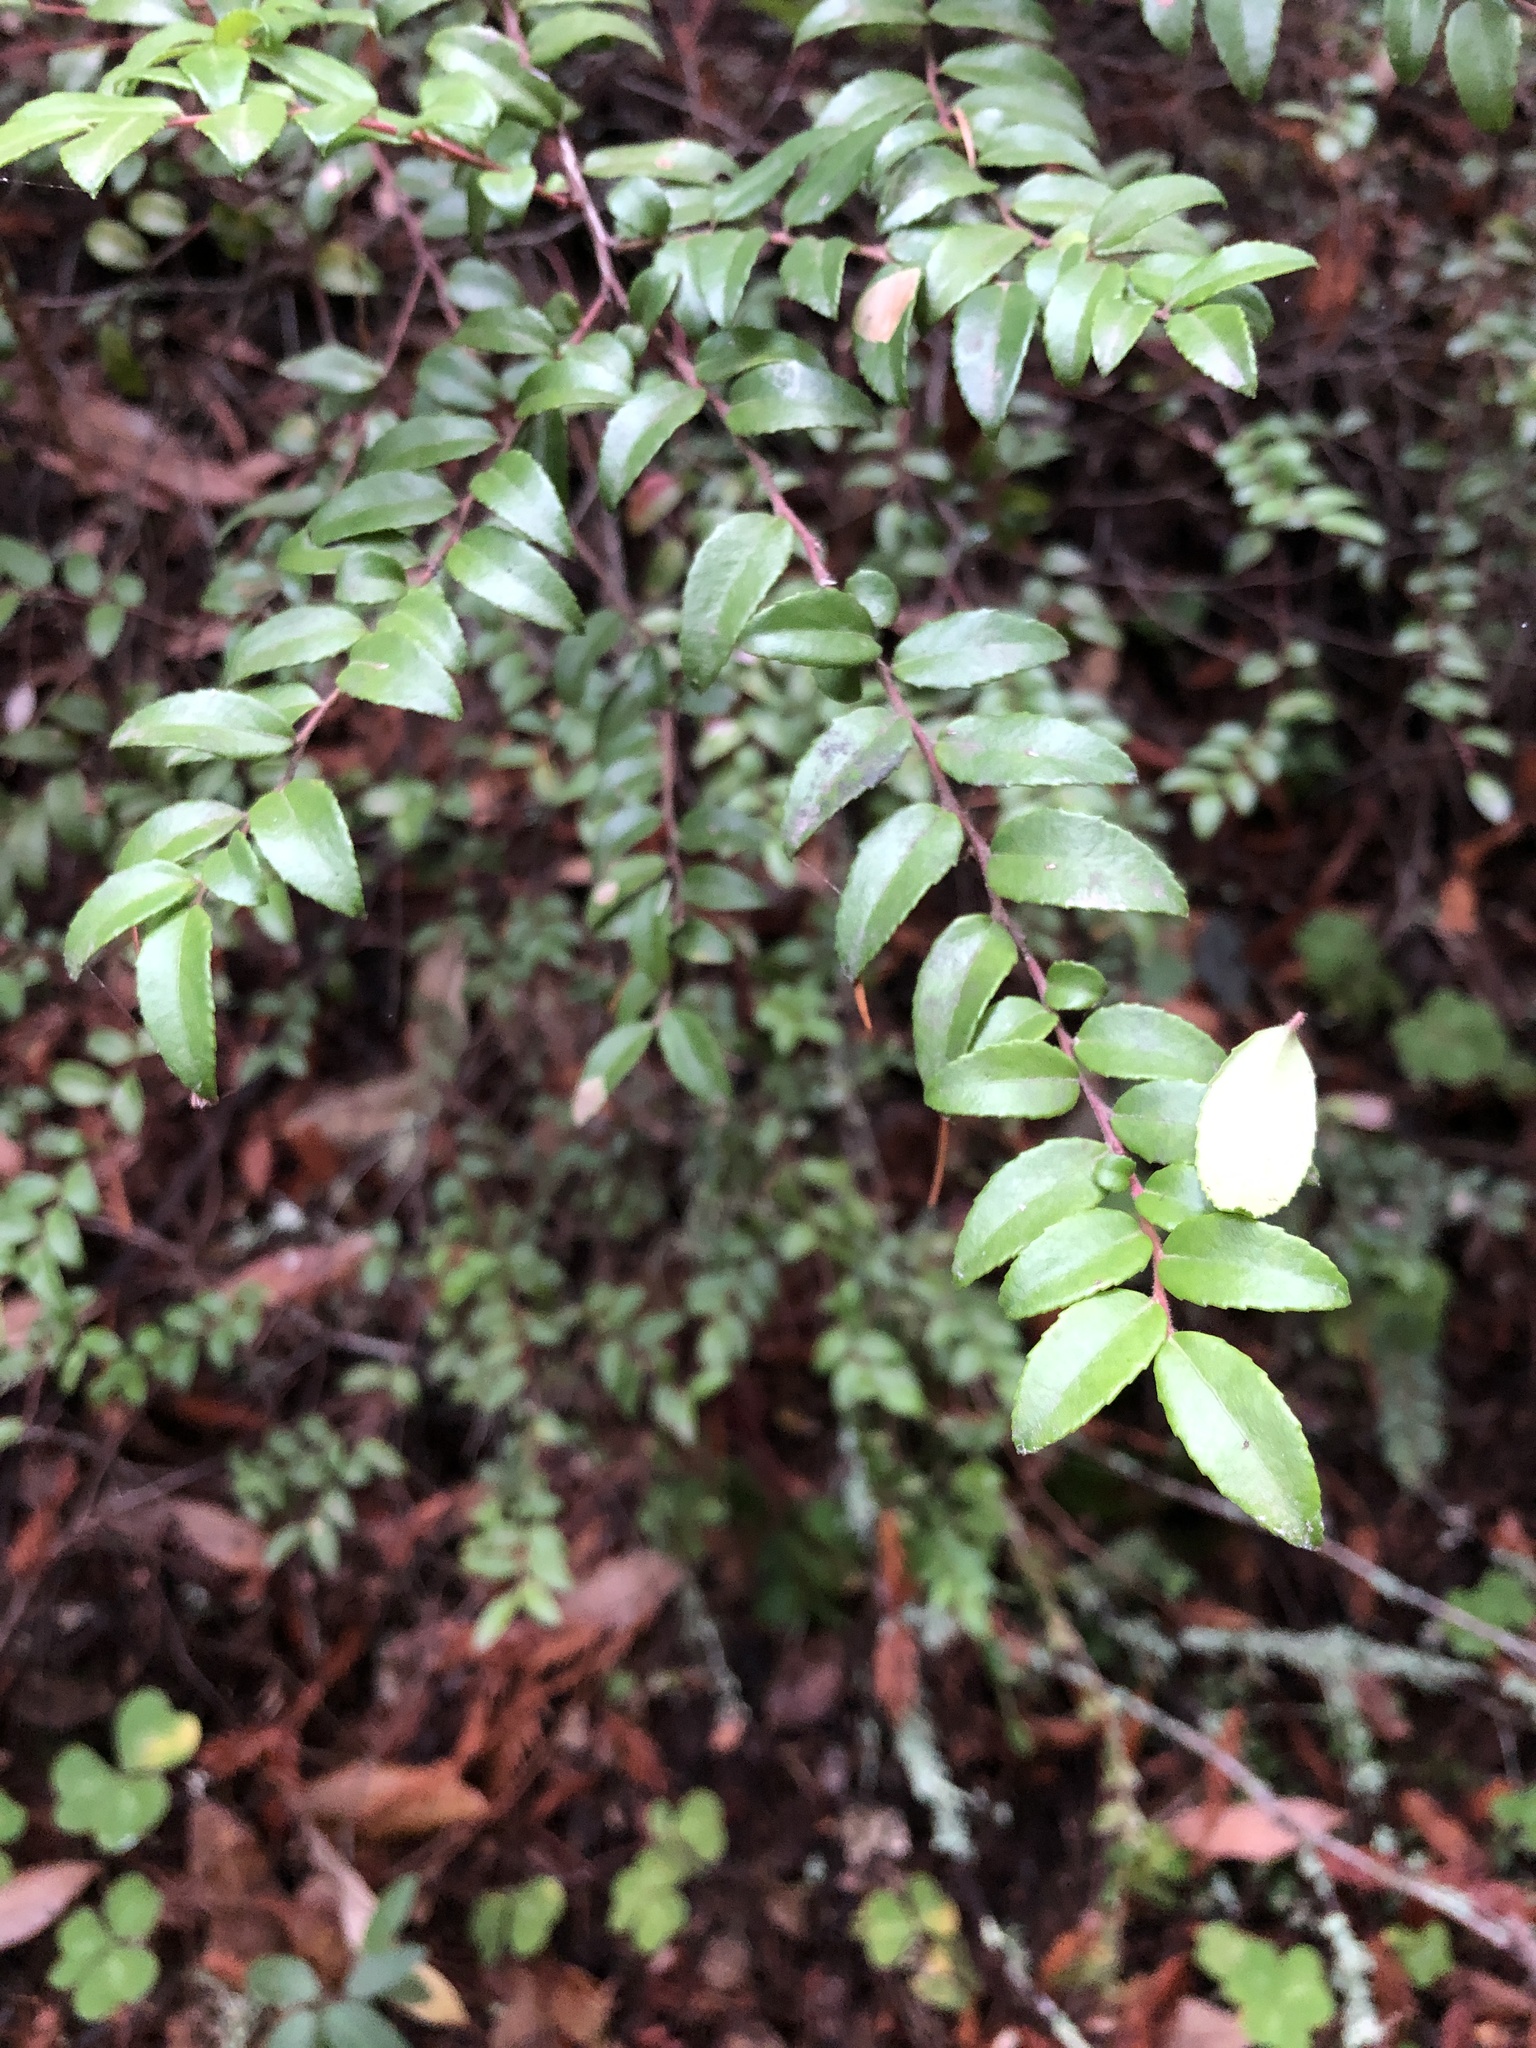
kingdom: Plantae
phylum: Tracheophyta
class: Magnoliopsida
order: Ericales
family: Ericaceae
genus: Vaccinium
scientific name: Vaccinium ovatum
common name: California-huckleberry
